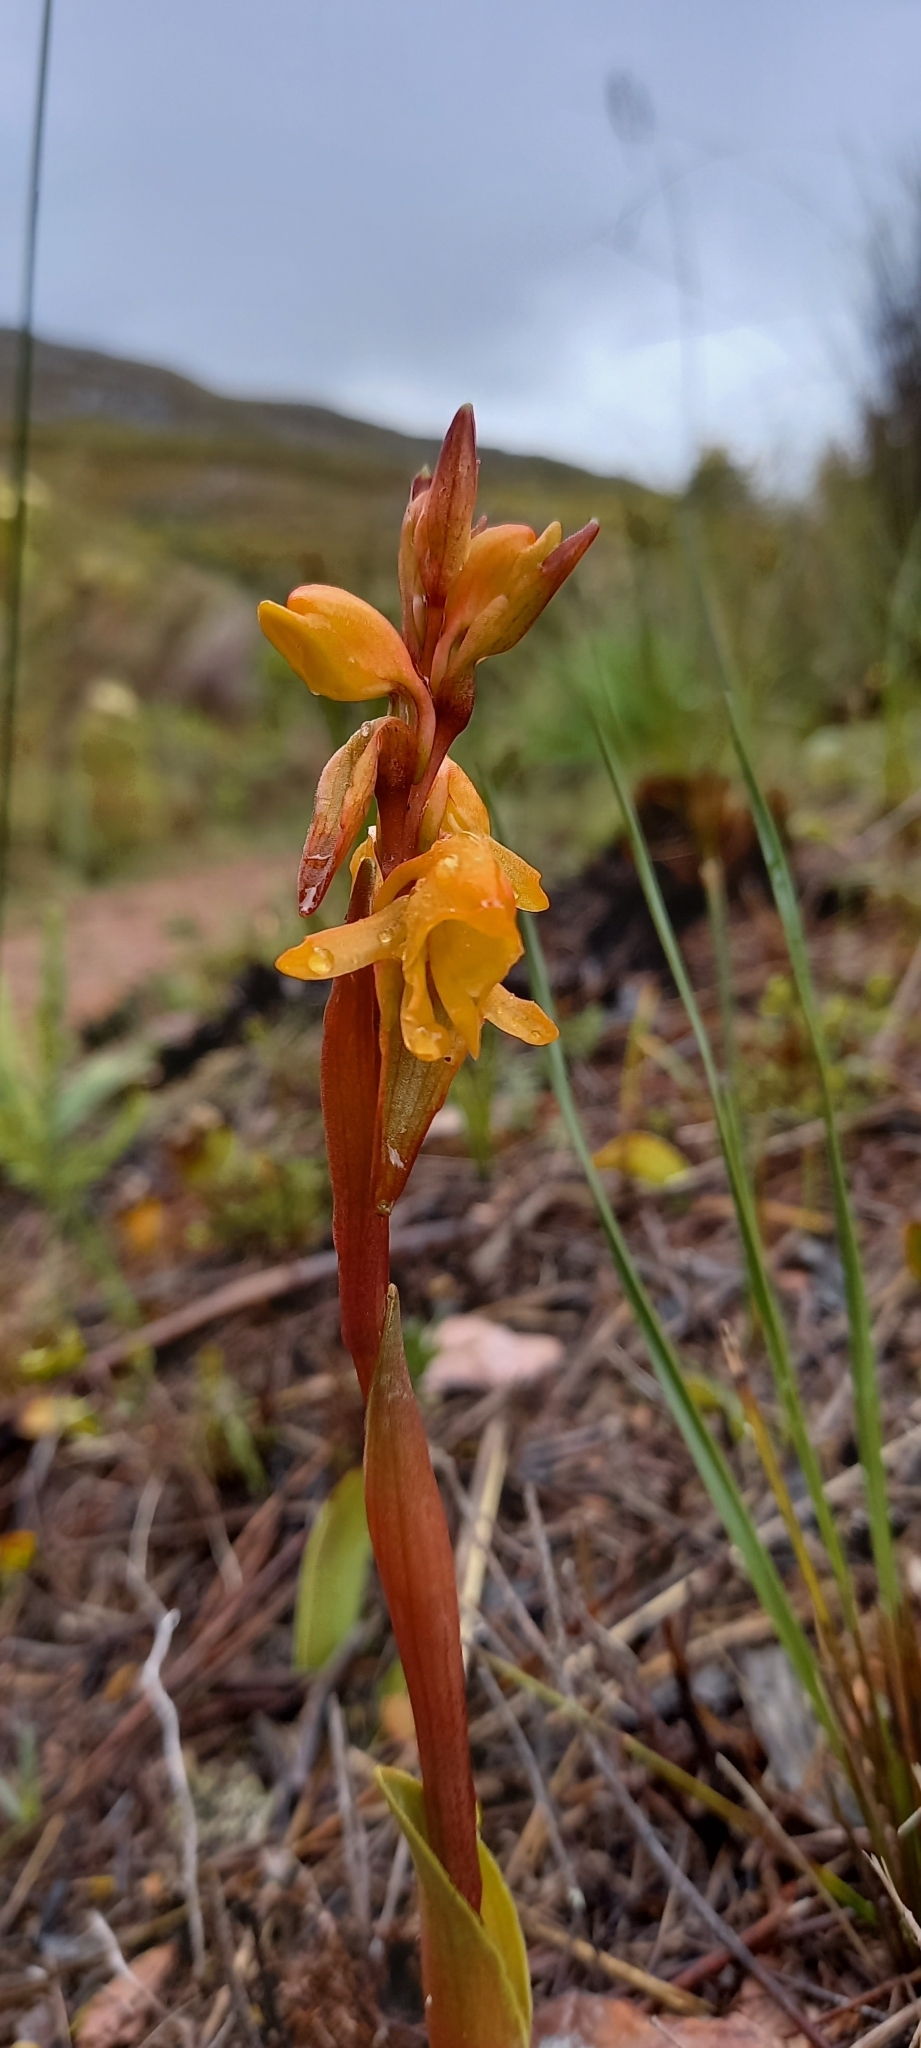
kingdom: Plantae
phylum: Tracheophyta
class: Liliopsida
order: Asparagales
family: Orchidaceae
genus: Satyrium
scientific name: Satyrium coriifolium
